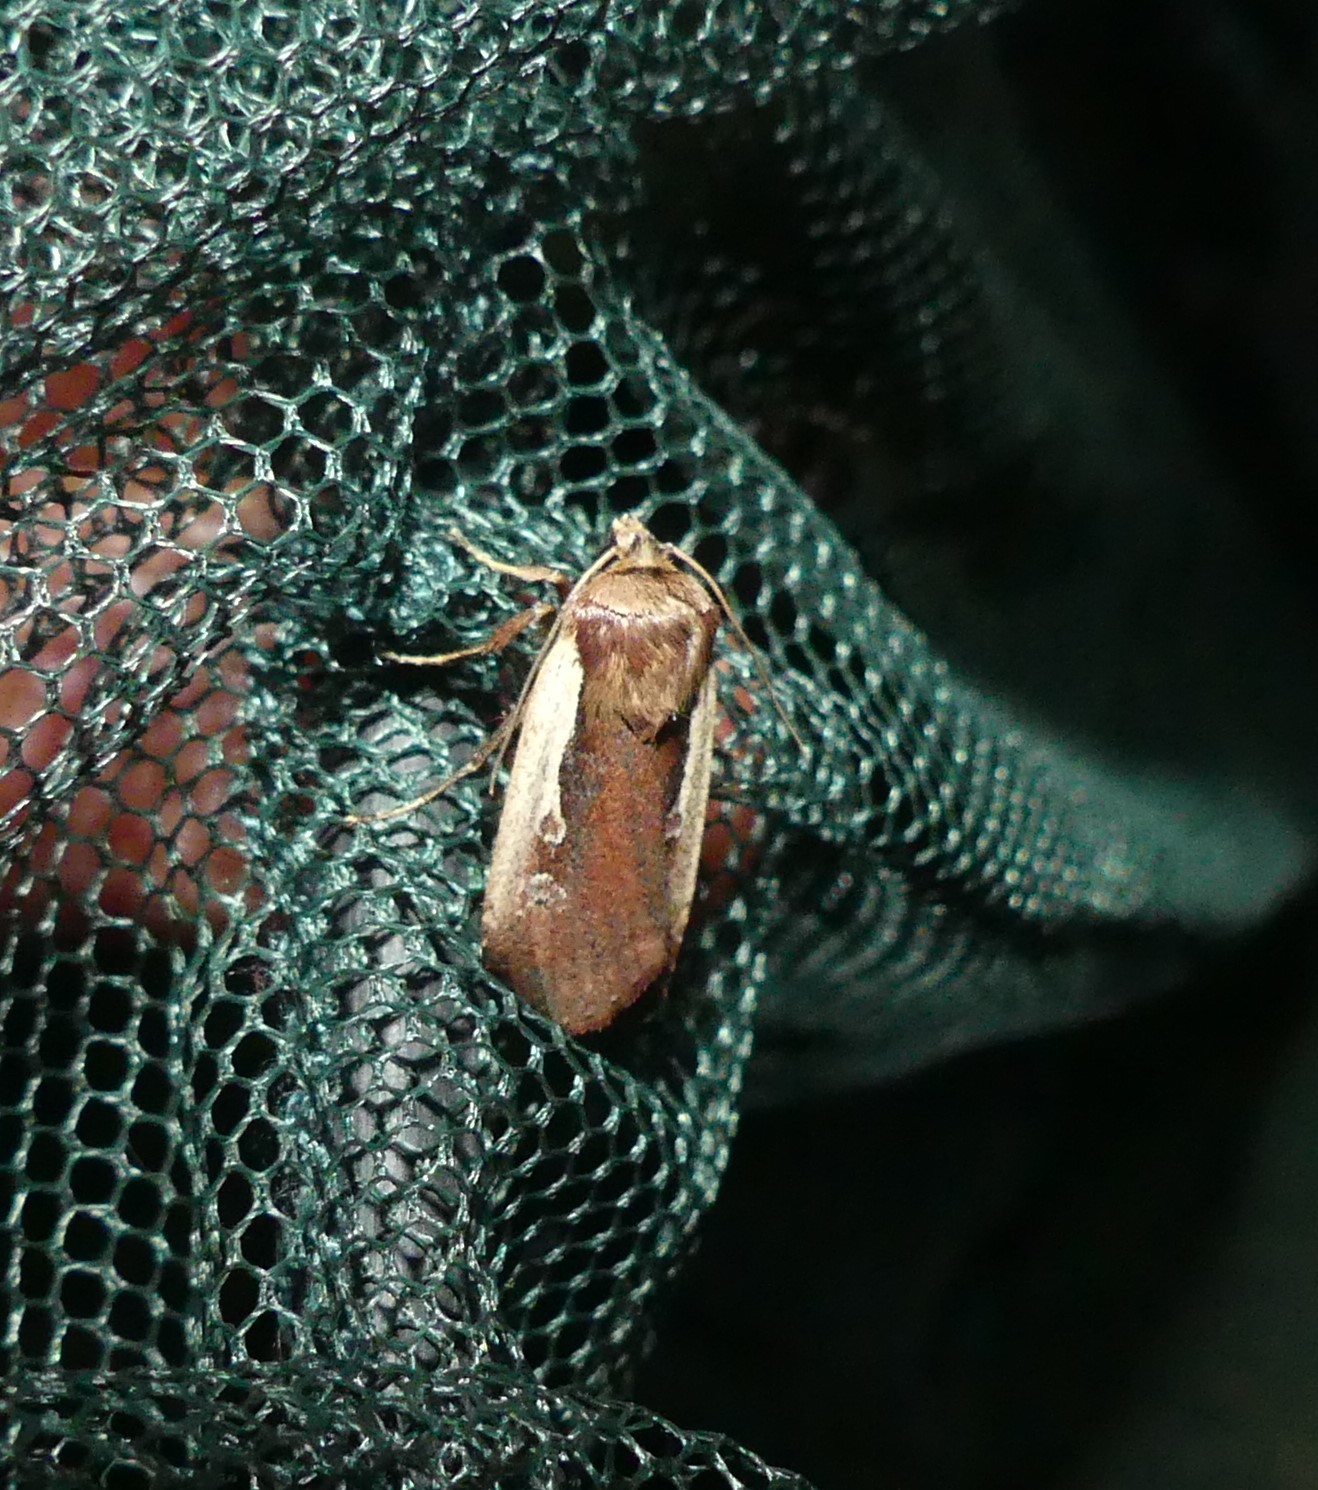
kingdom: Animalia
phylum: Arthropoda
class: Insecta
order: Lepidoptera
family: Noctuidae
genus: Ochropleura
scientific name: Ochropleura plecta
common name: Flame shoulder
